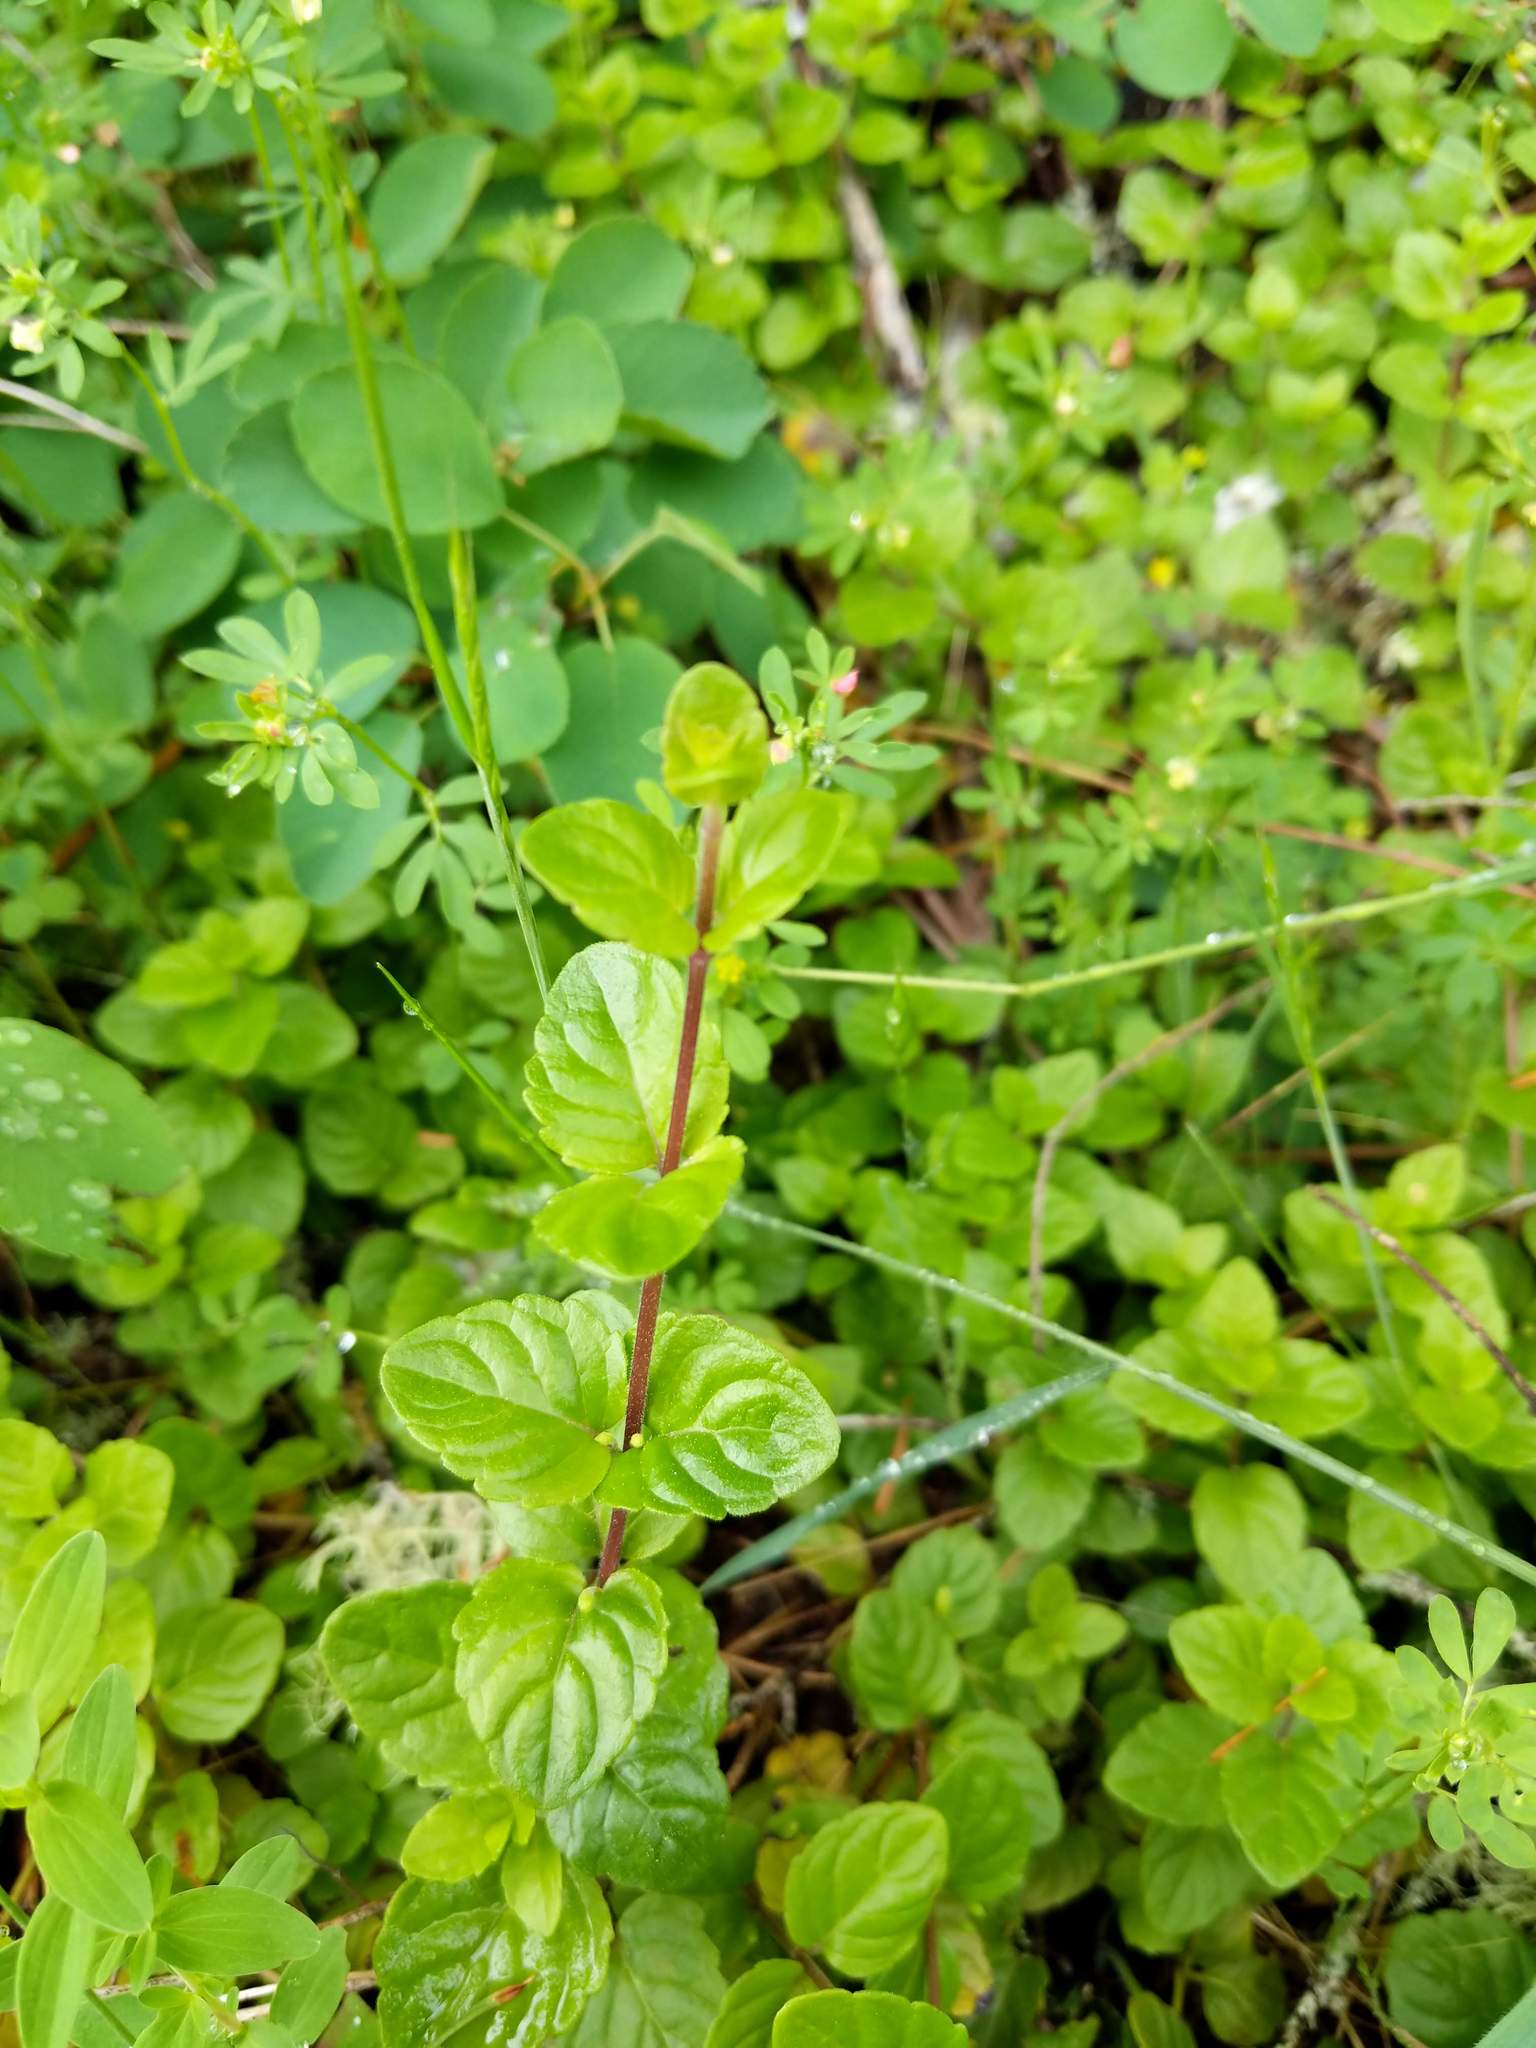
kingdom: Plantae
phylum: Tracheophyta
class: Magnoliopsida
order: Lamiales
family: Lamiaceae
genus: Micromeria
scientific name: Micromeria douglasii
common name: Yerba buena
